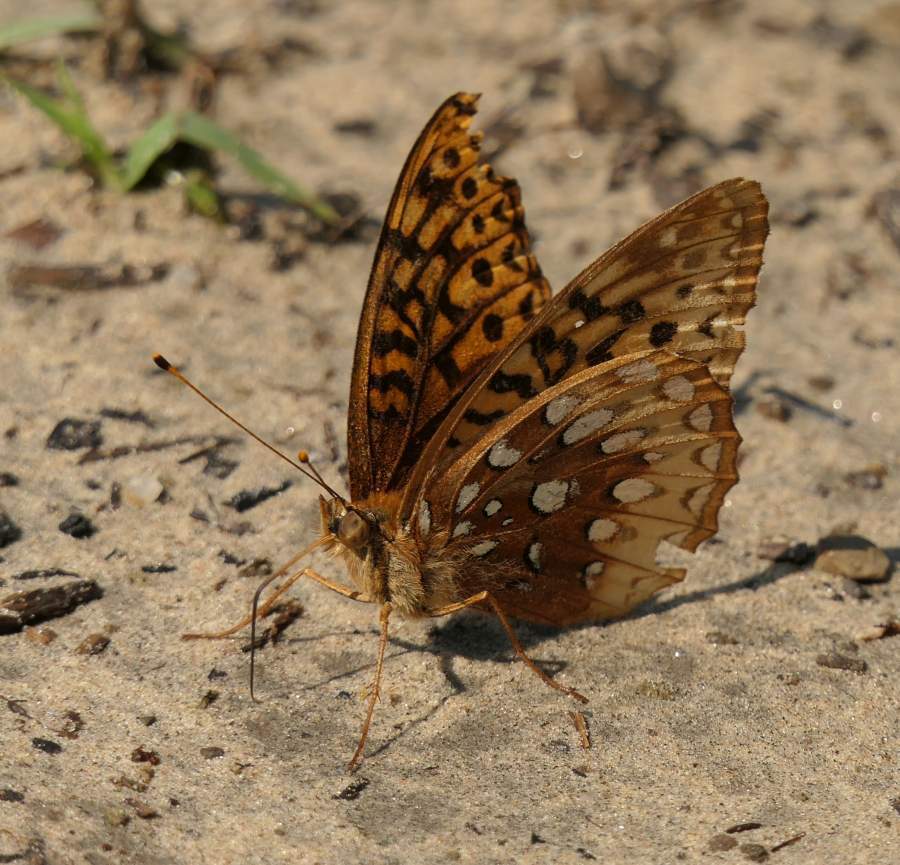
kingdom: Animalia
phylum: Arthropoda
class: Insecta
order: Lepidoptera
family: Nymphalidae
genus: Speyeria
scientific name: Speyeria cybele
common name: Great spangled fritillary
